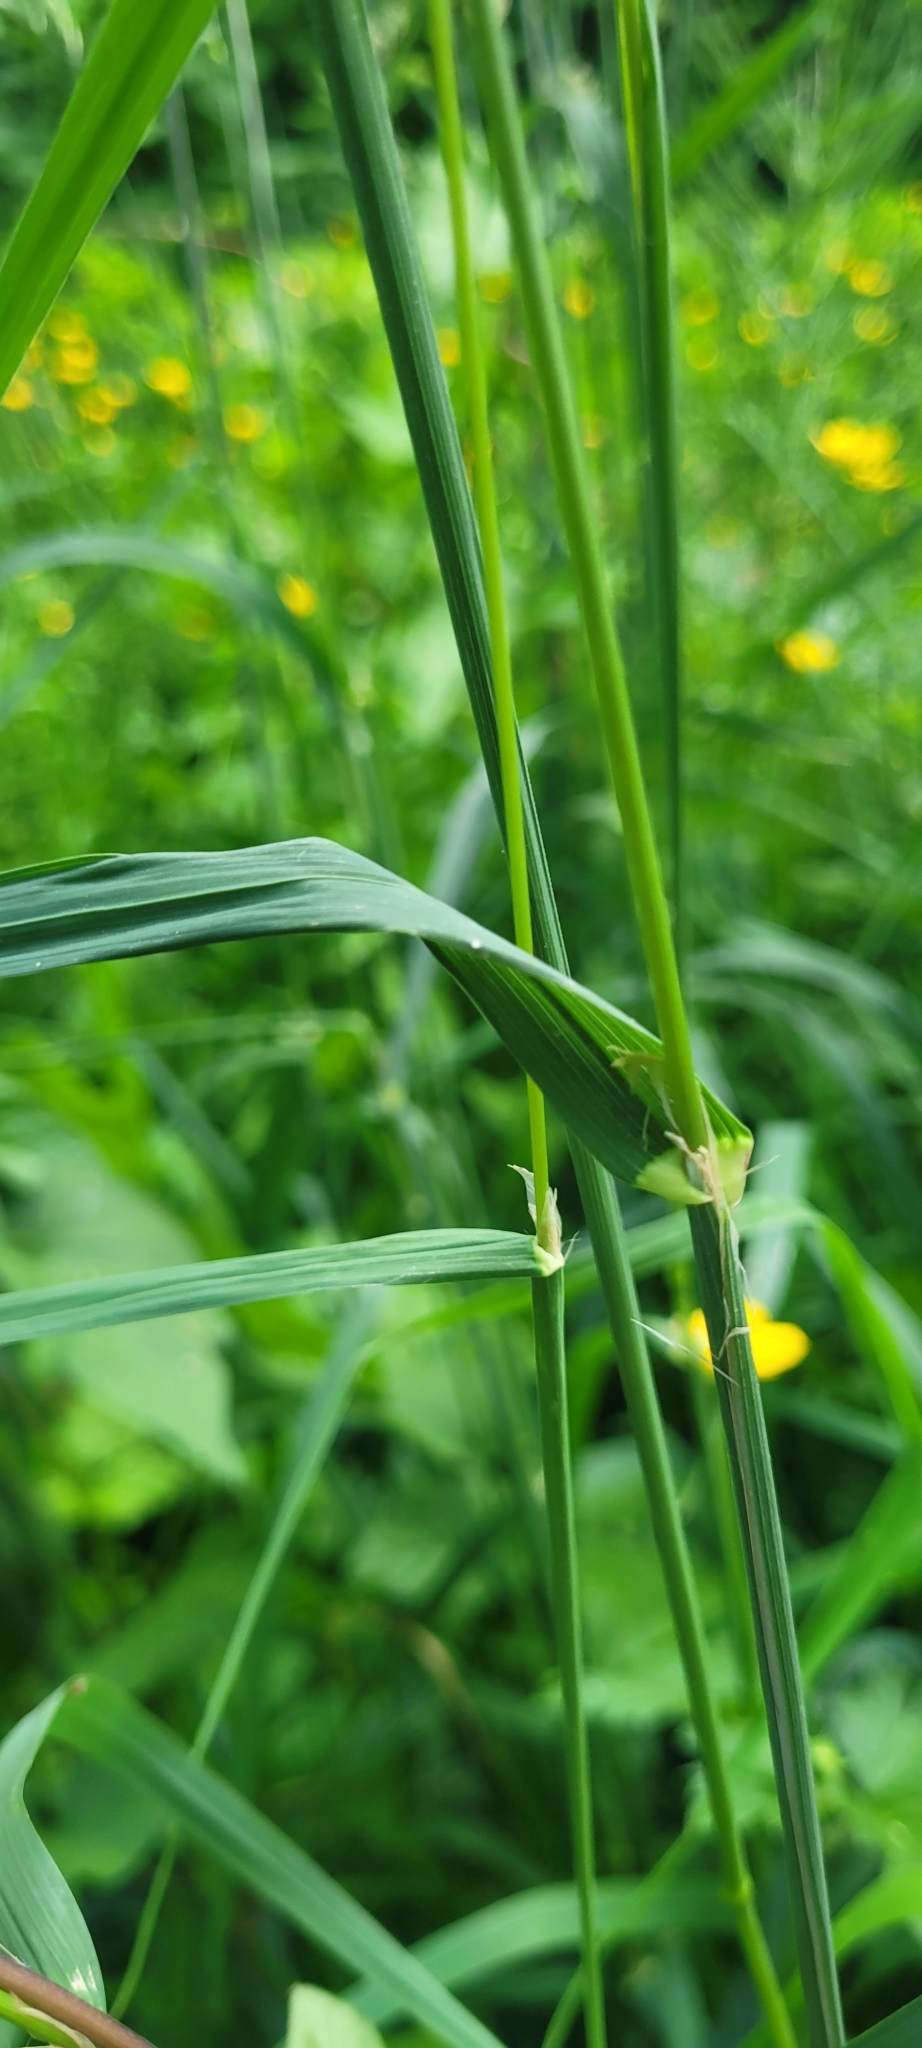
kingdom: Plantae
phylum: Tracheophyta
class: Liliopsida
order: Poales
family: Poaceae
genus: Dactylis
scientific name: Dactylis glomerata
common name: Orchardgrass
